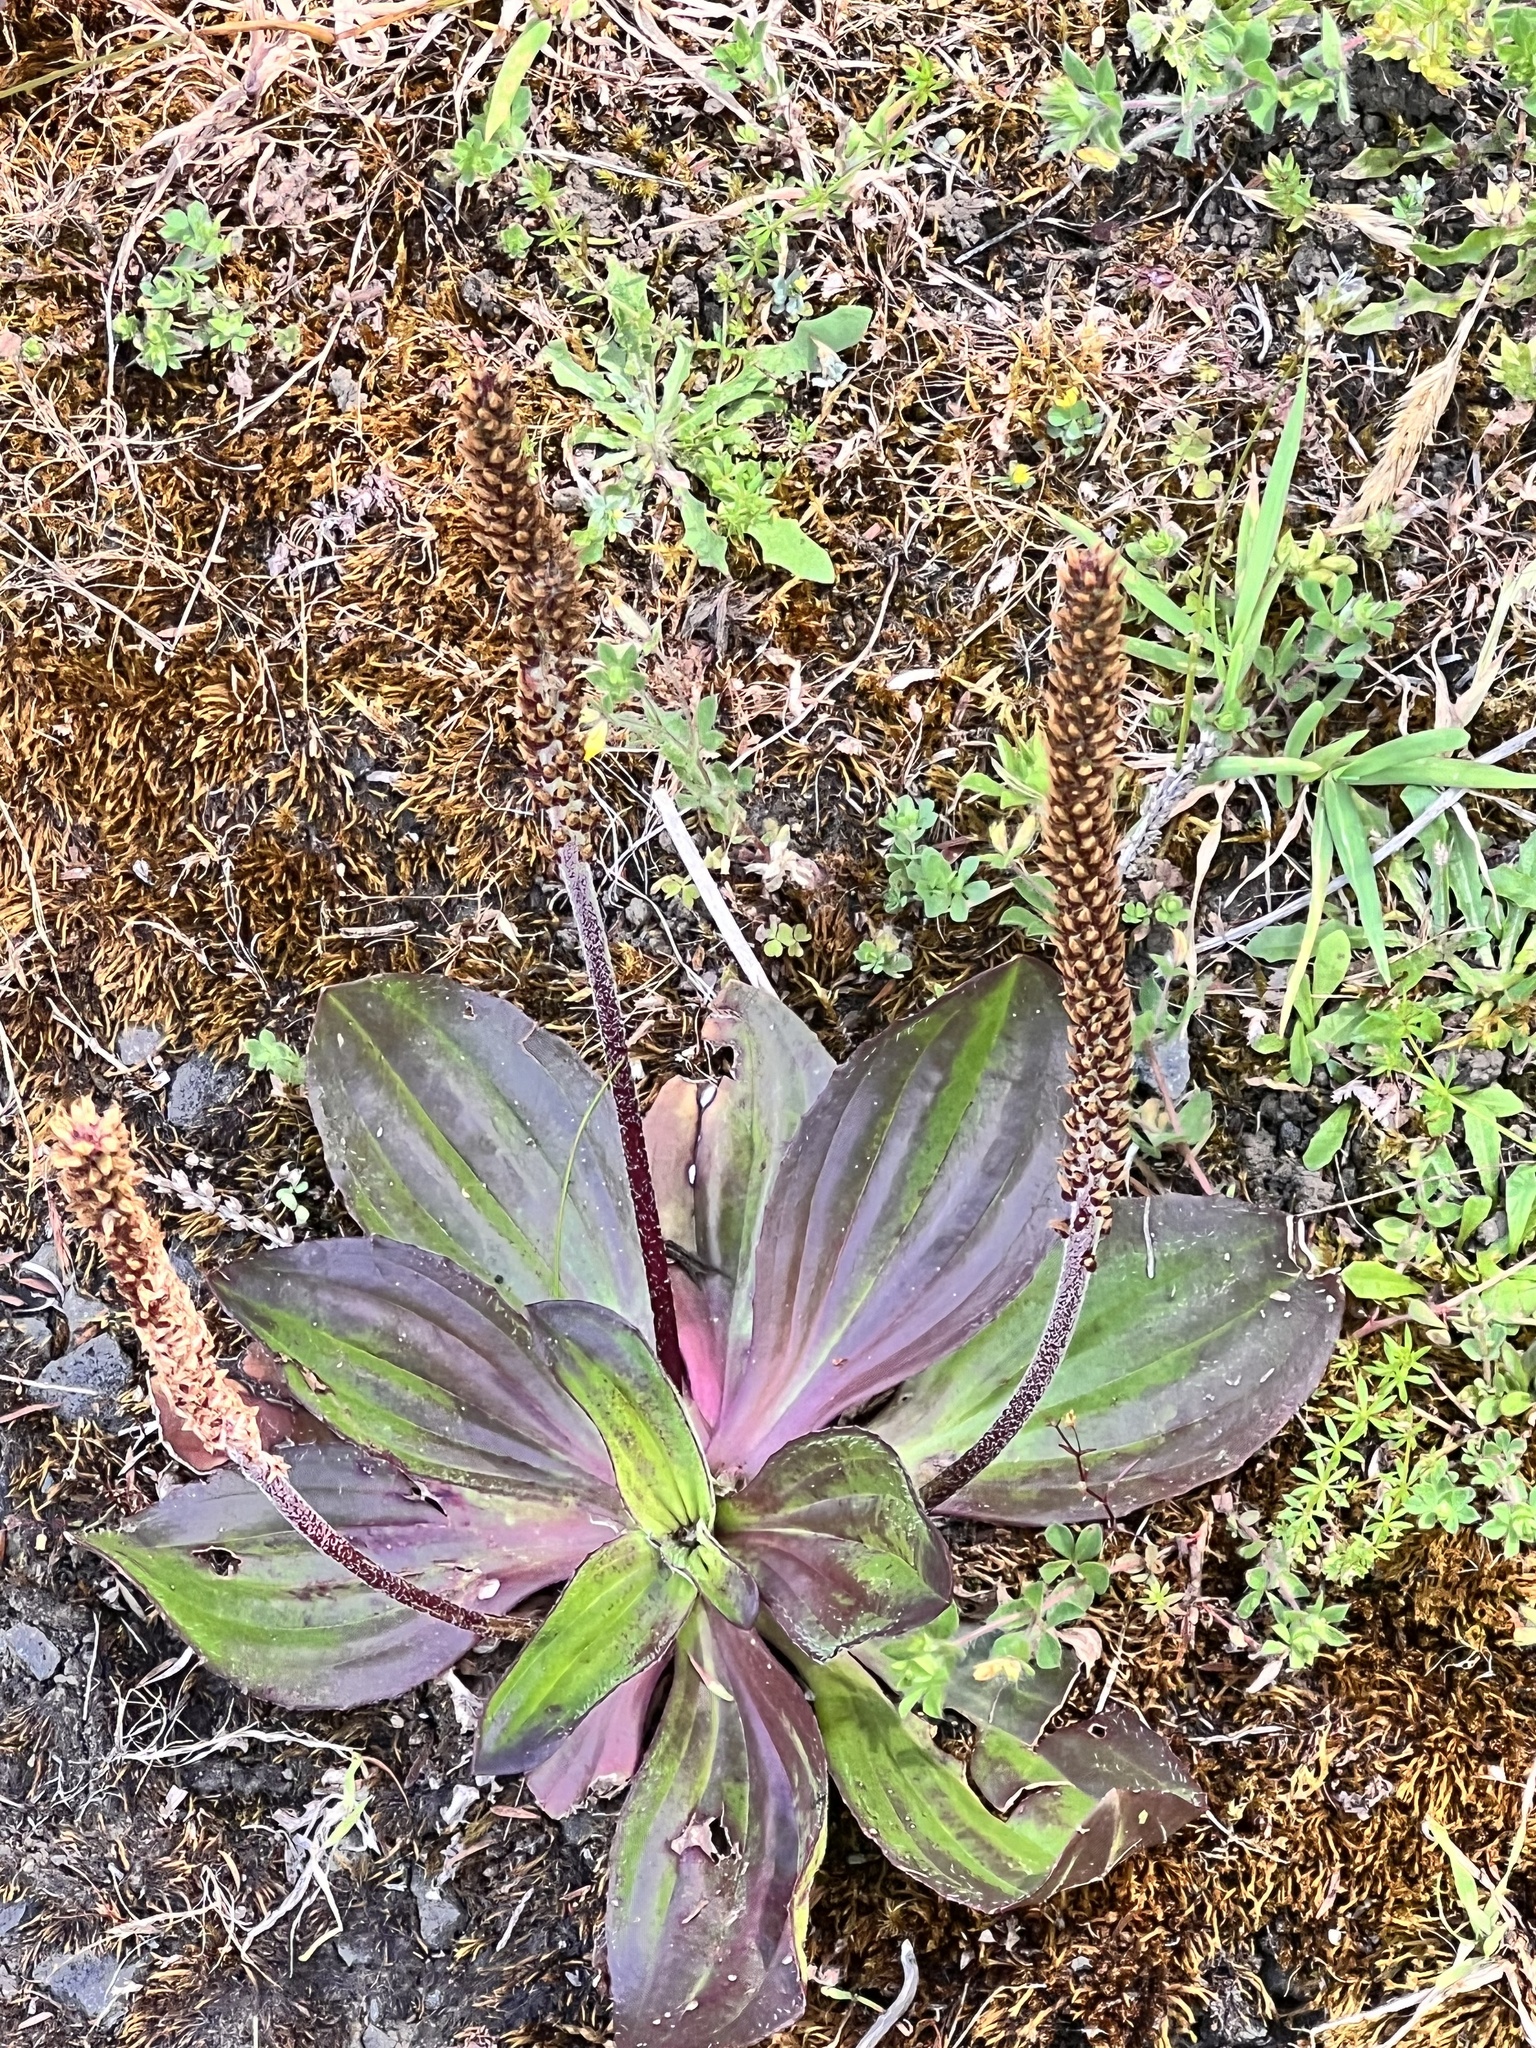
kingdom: Plantae
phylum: Tracheophyta
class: Magnoliopsida
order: Lamiales
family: Plantaginaceae
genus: Plantago
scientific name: Plantago australis
